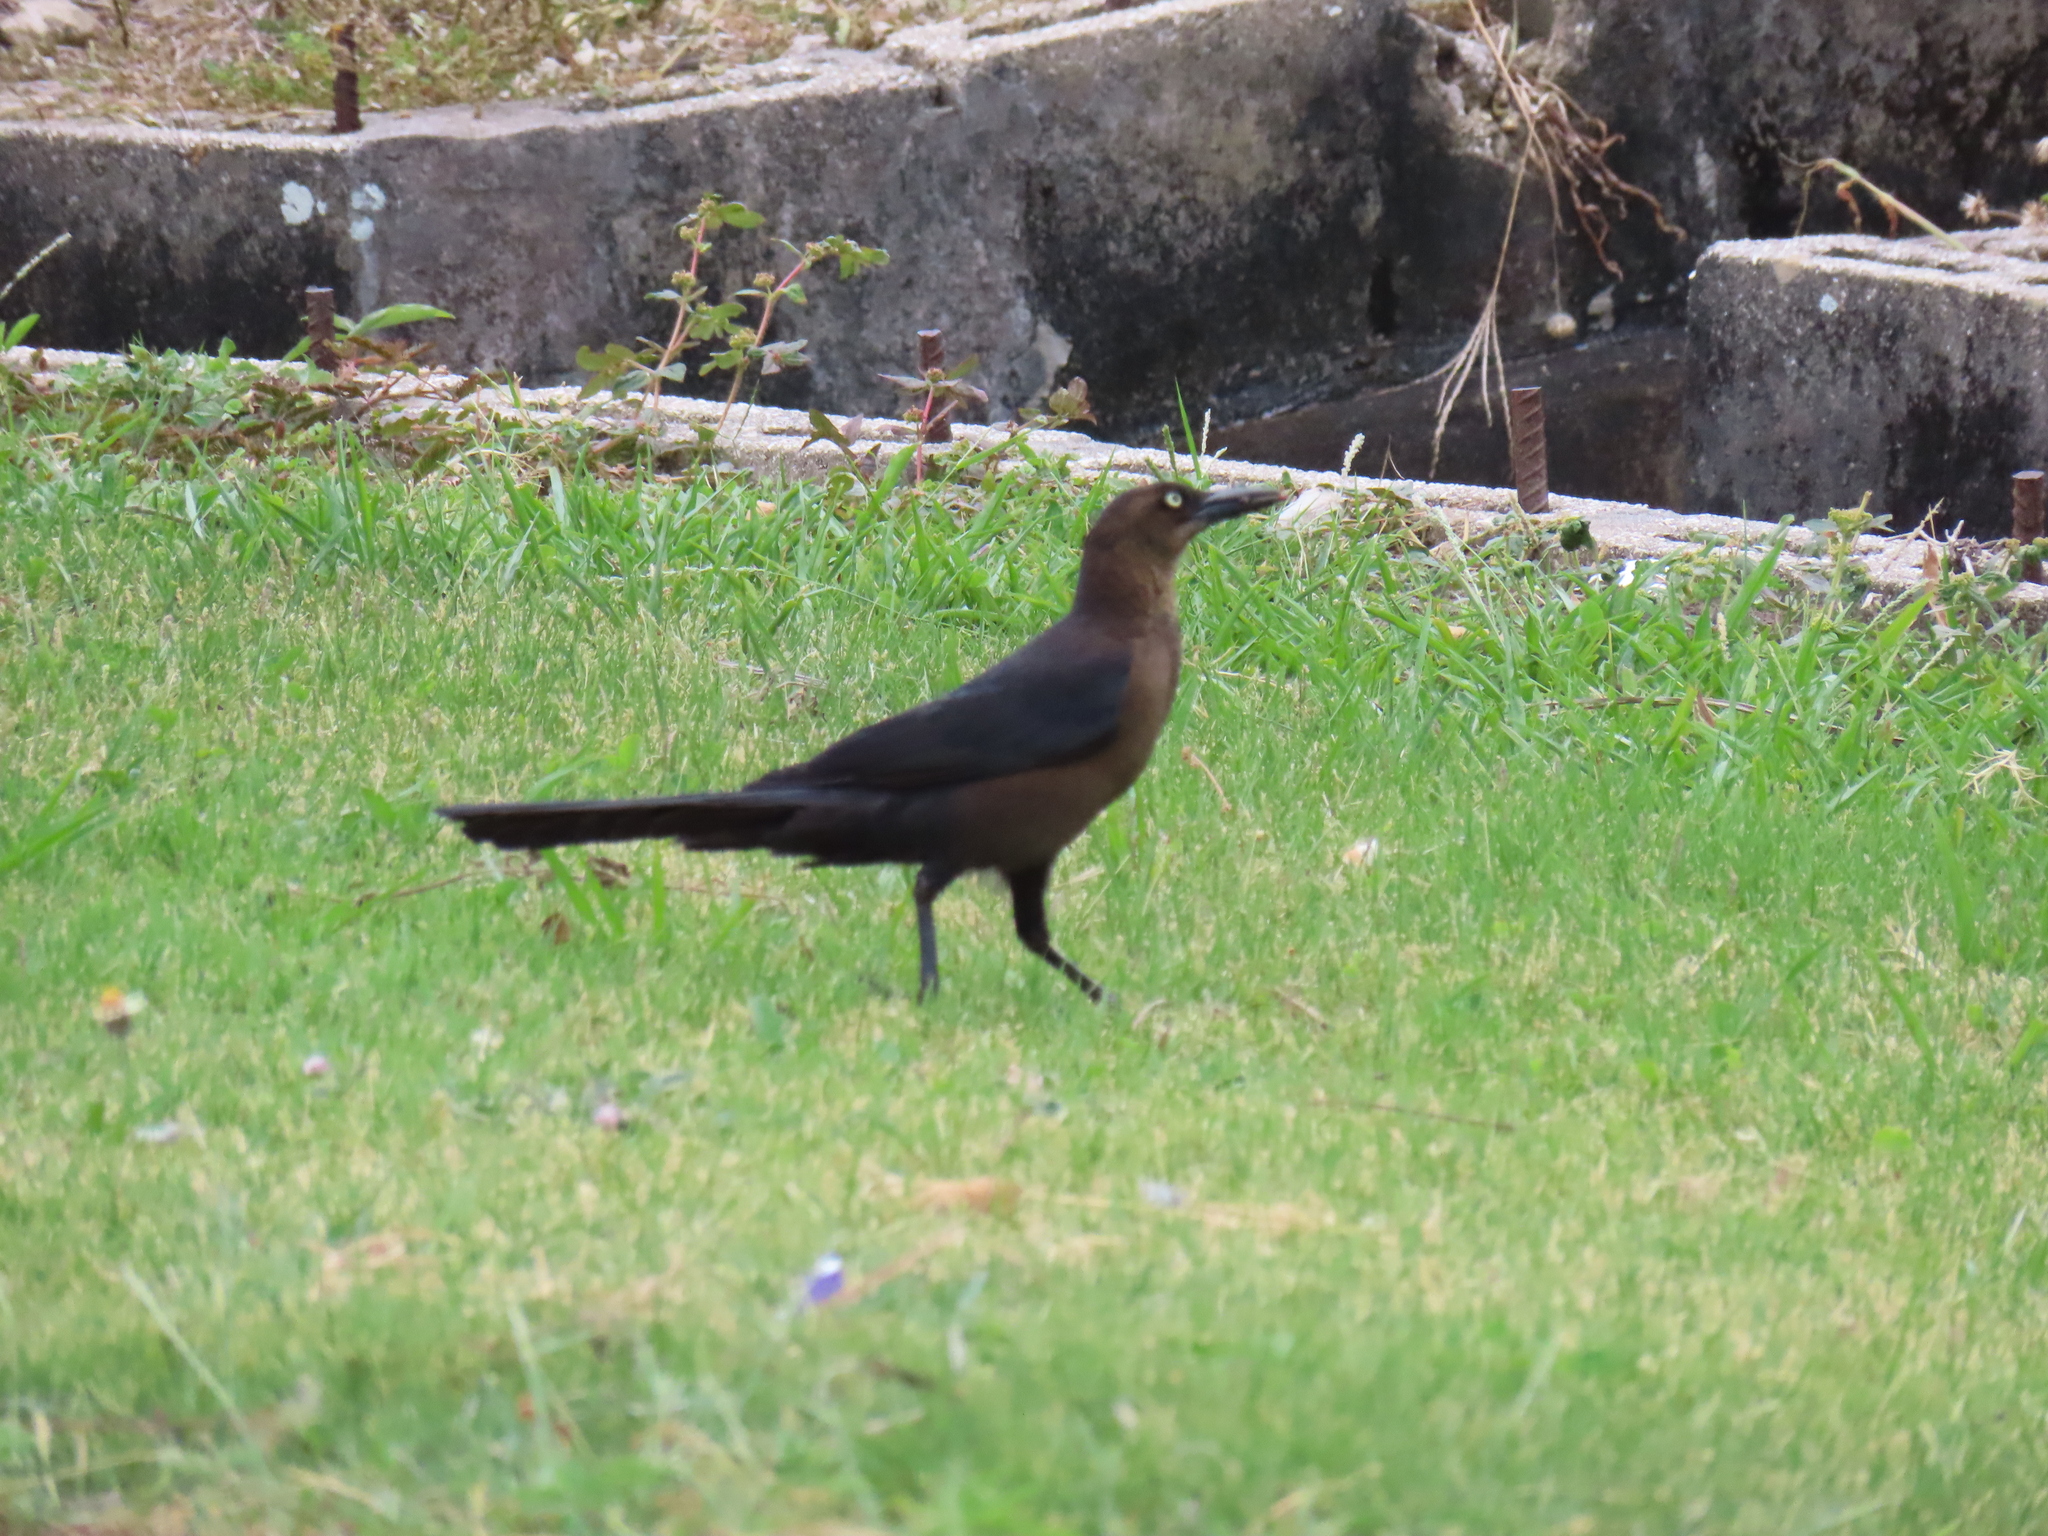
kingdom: Animalia
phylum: Chordata
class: Aves
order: Passeriformes
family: Icteridae
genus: Quiscalus
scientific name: Quiscalus mexicanus
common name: Great-tailed grackle
